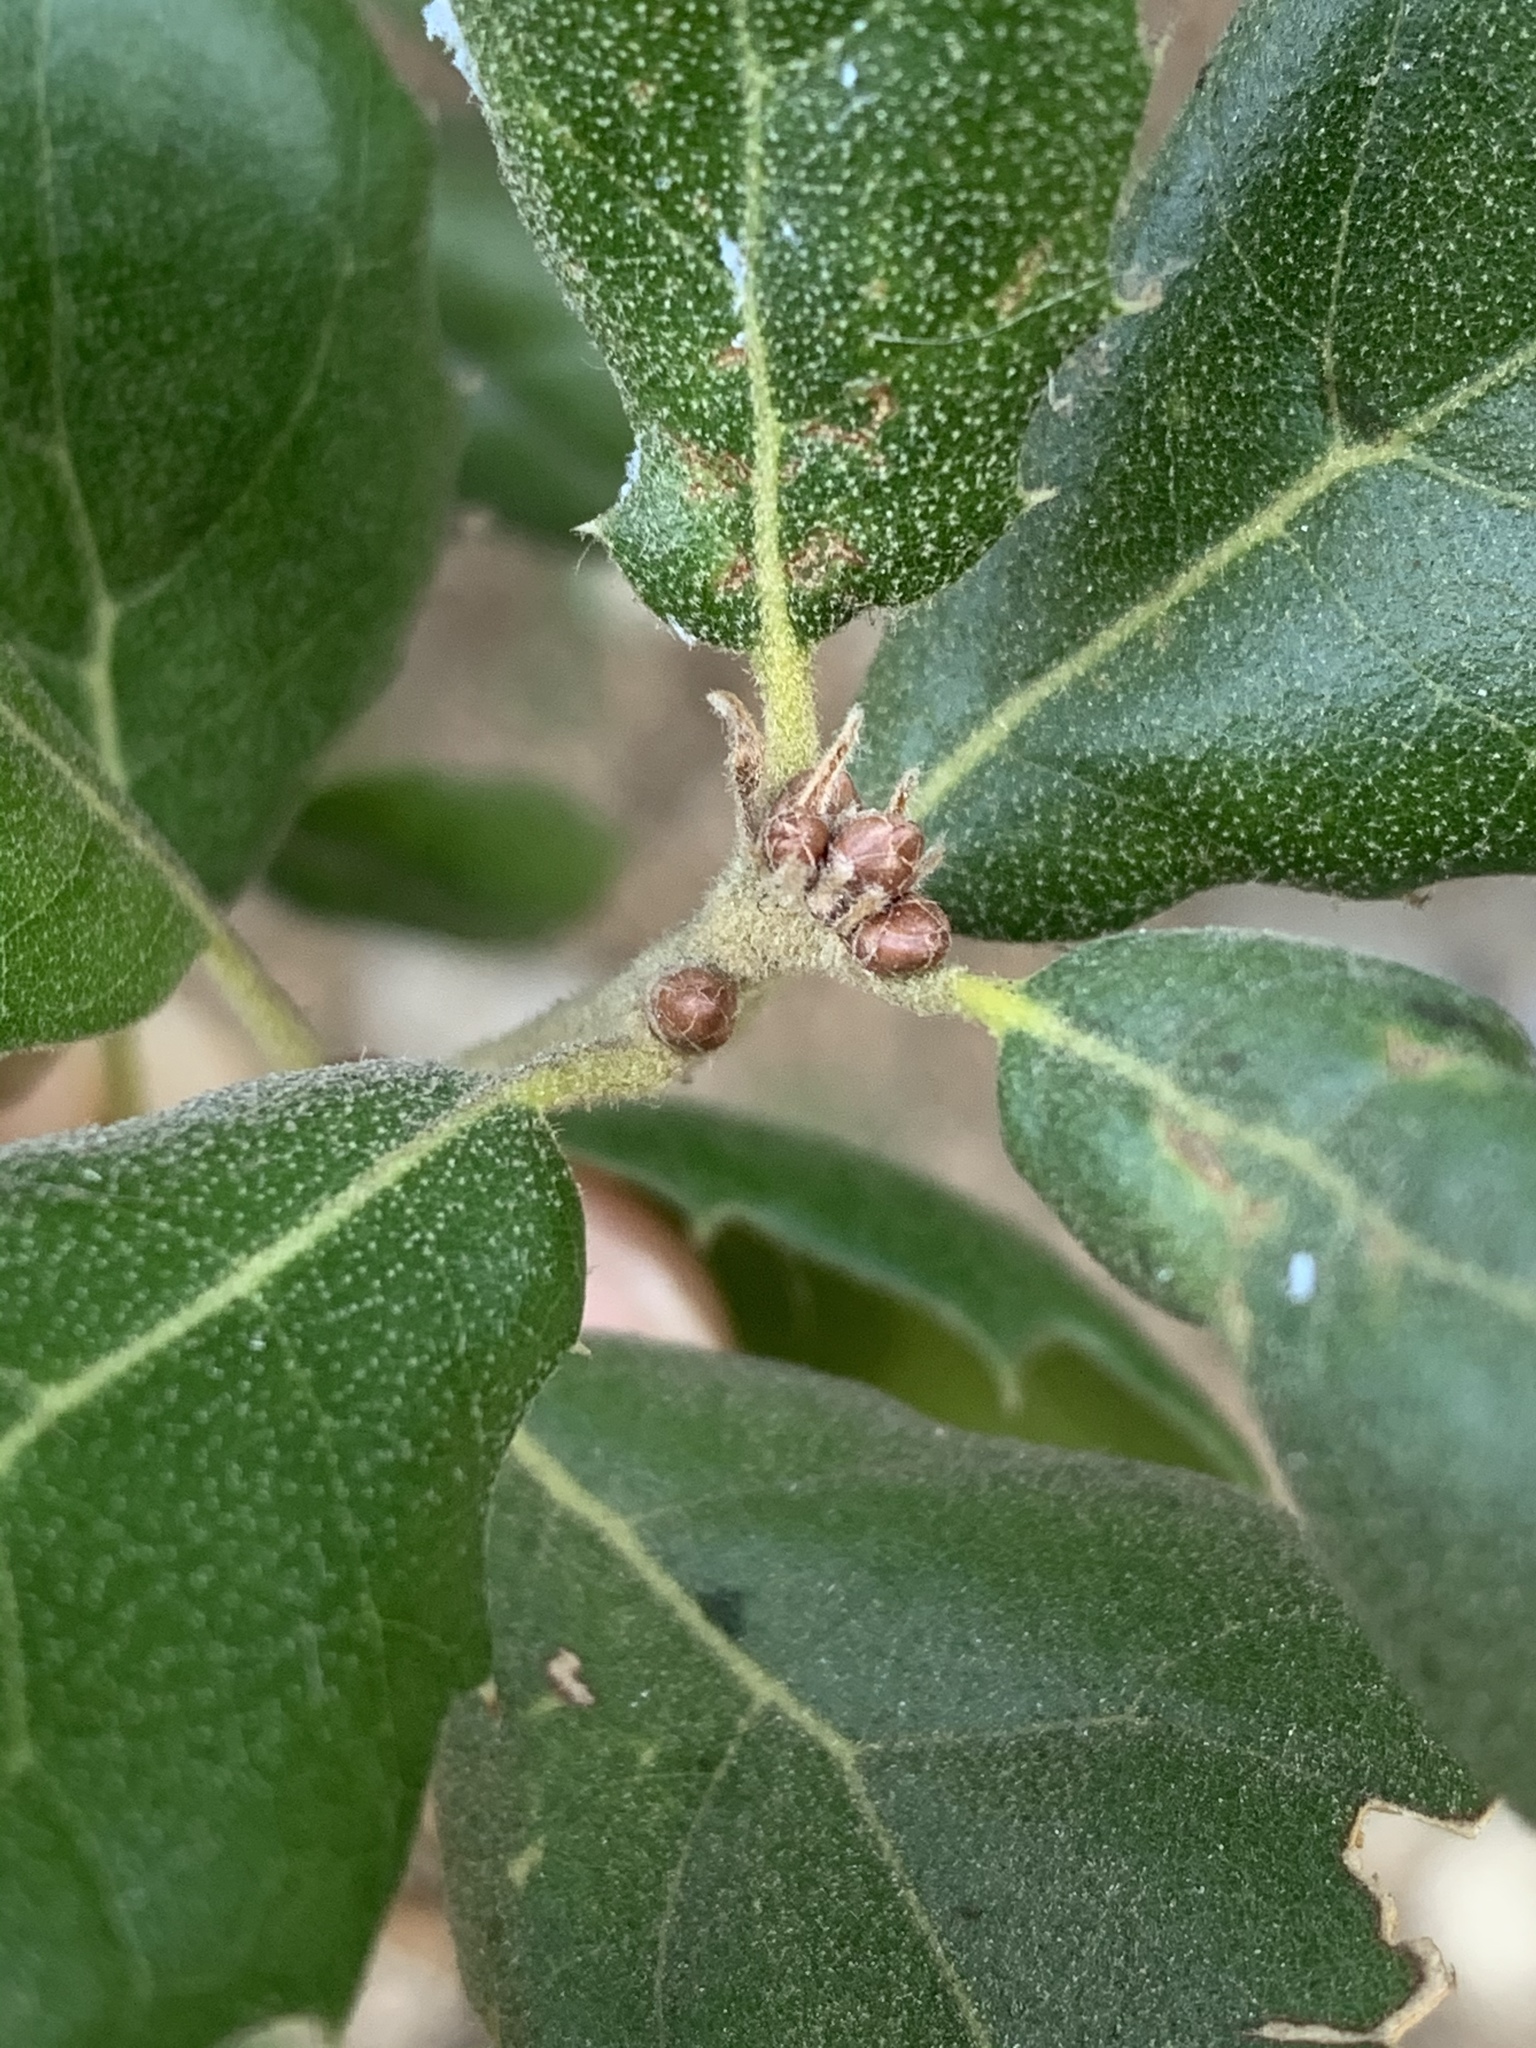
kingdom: Plantae
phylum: Tracheophyta
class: Magnoliopsida
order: Fagales
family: Fagaceae
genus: Quercus
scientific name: Quercus agrifolia
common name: California live oak
